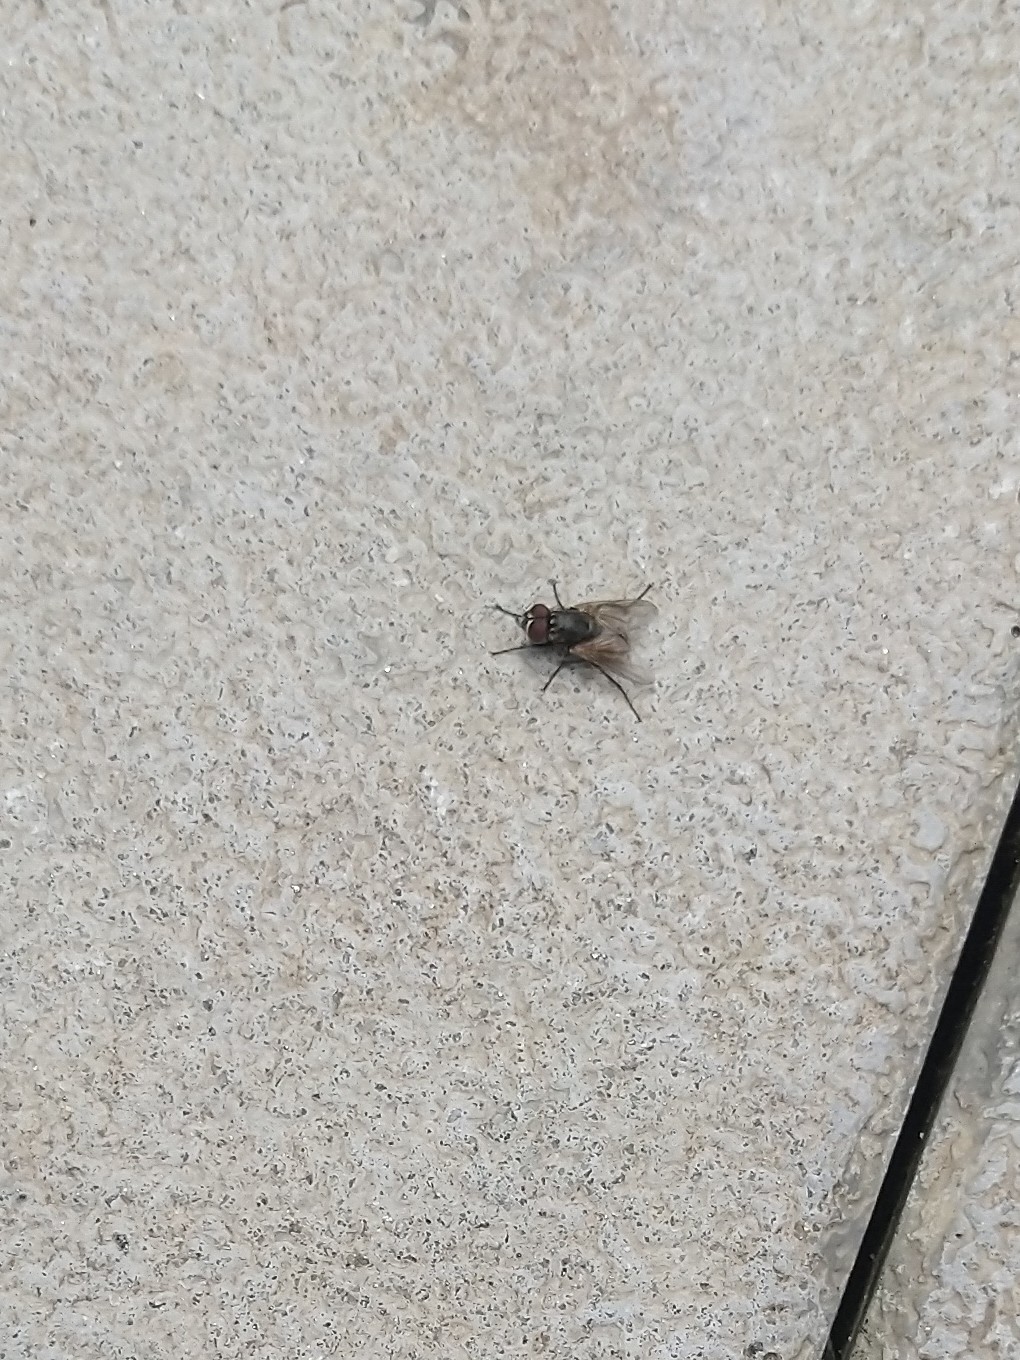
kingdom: Animalia
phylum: Arthropoda
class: Insecta
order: Diptera
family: Muscidae
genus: Musca
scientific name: Musca domestica
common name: House fly
